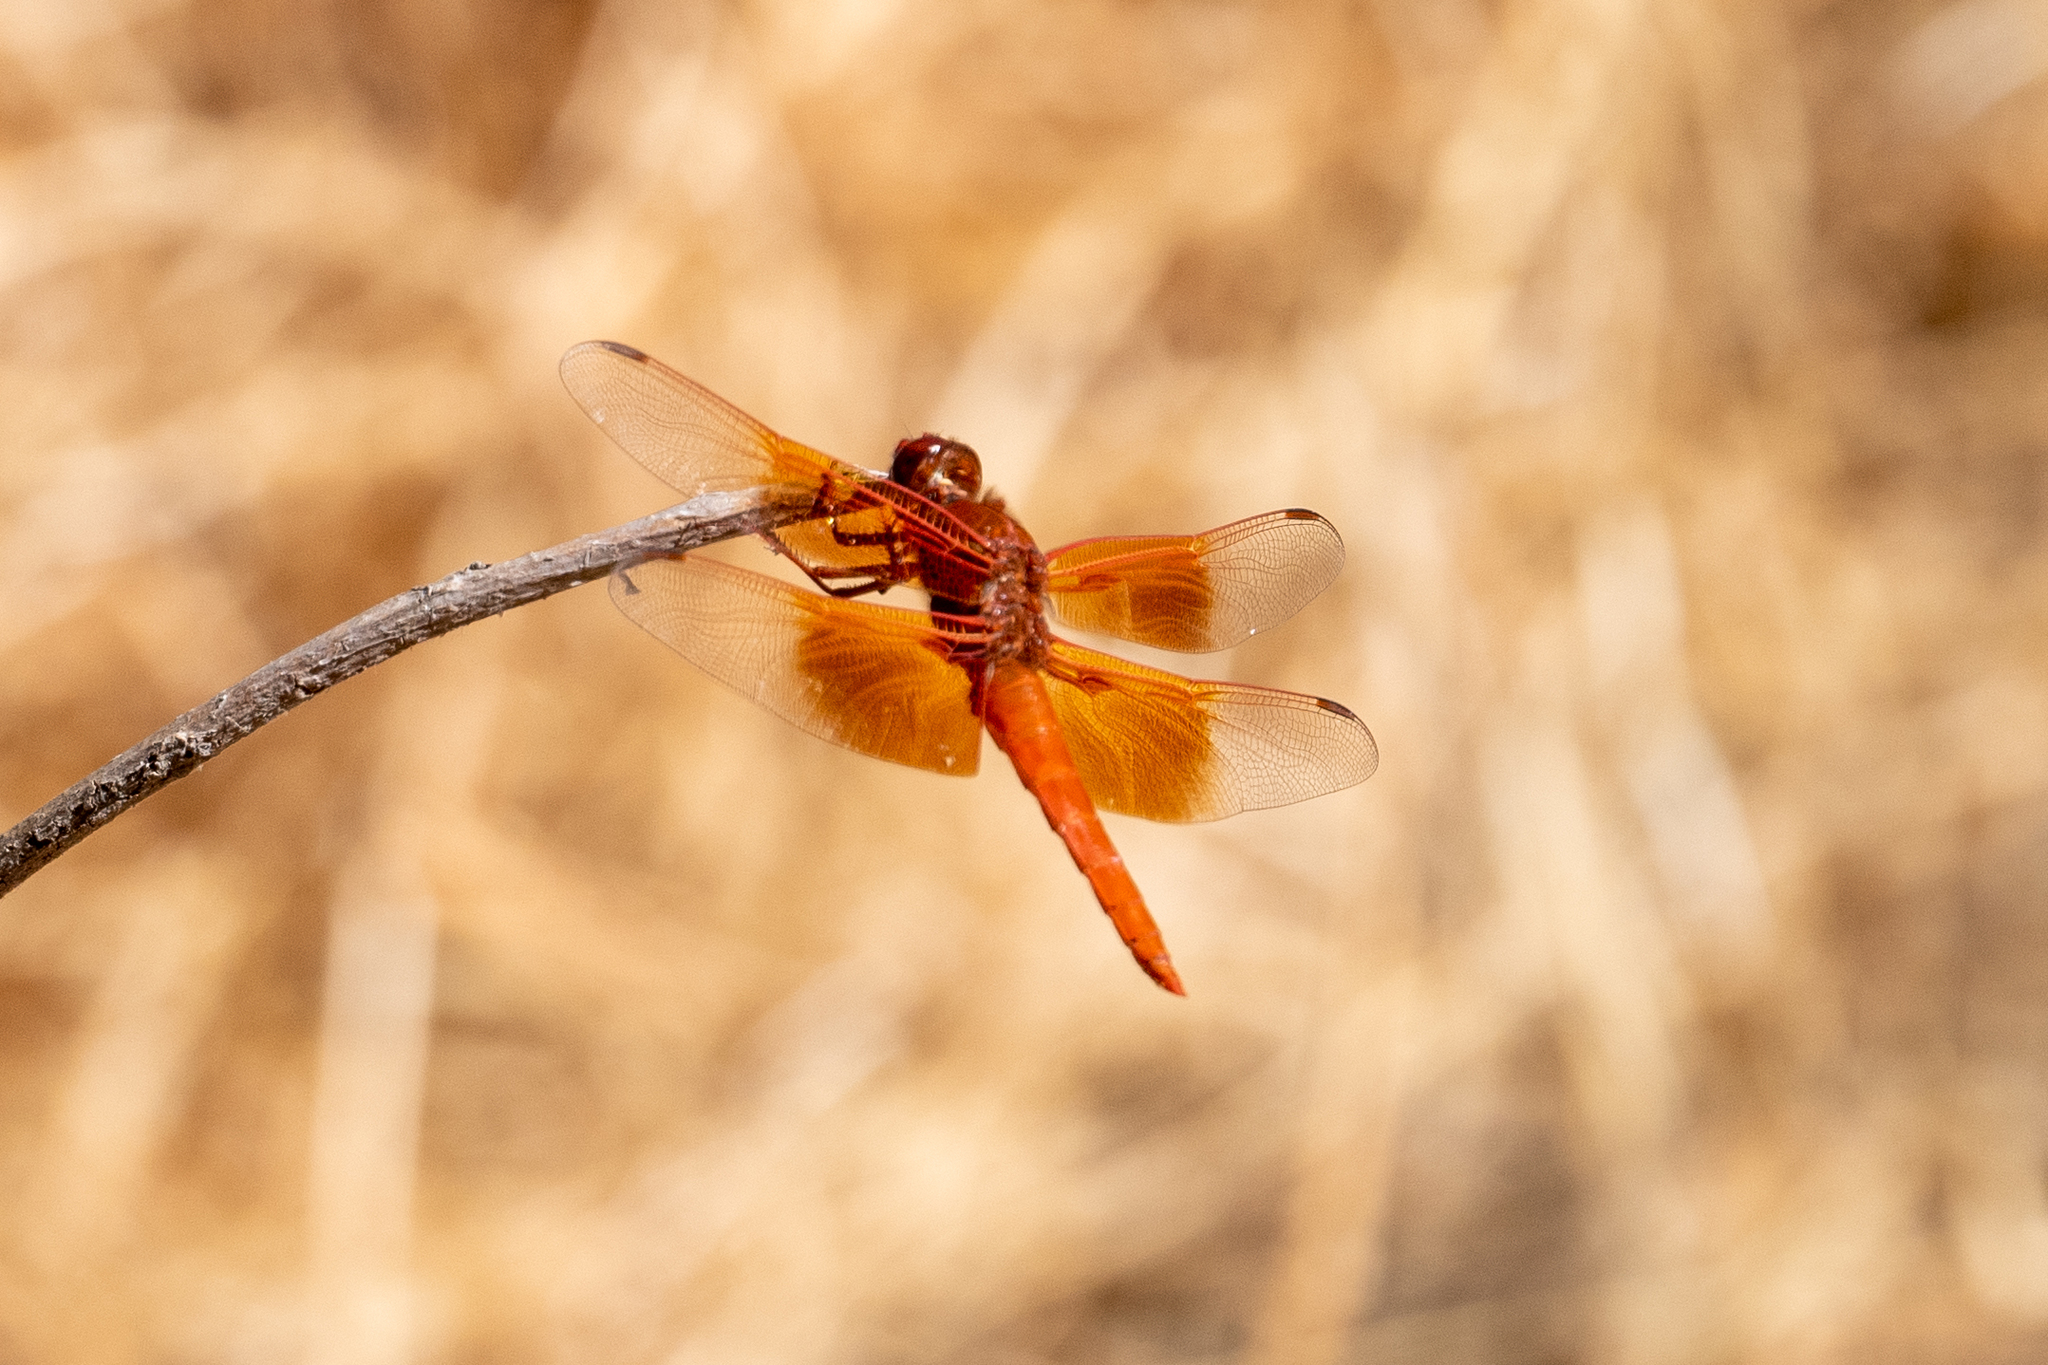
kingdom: Animalia
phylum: Arthropoda
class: Insecta
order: Odonata
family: Libellulidae
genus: Libellula
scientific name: Libellula saturata
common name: Flame skimmer
